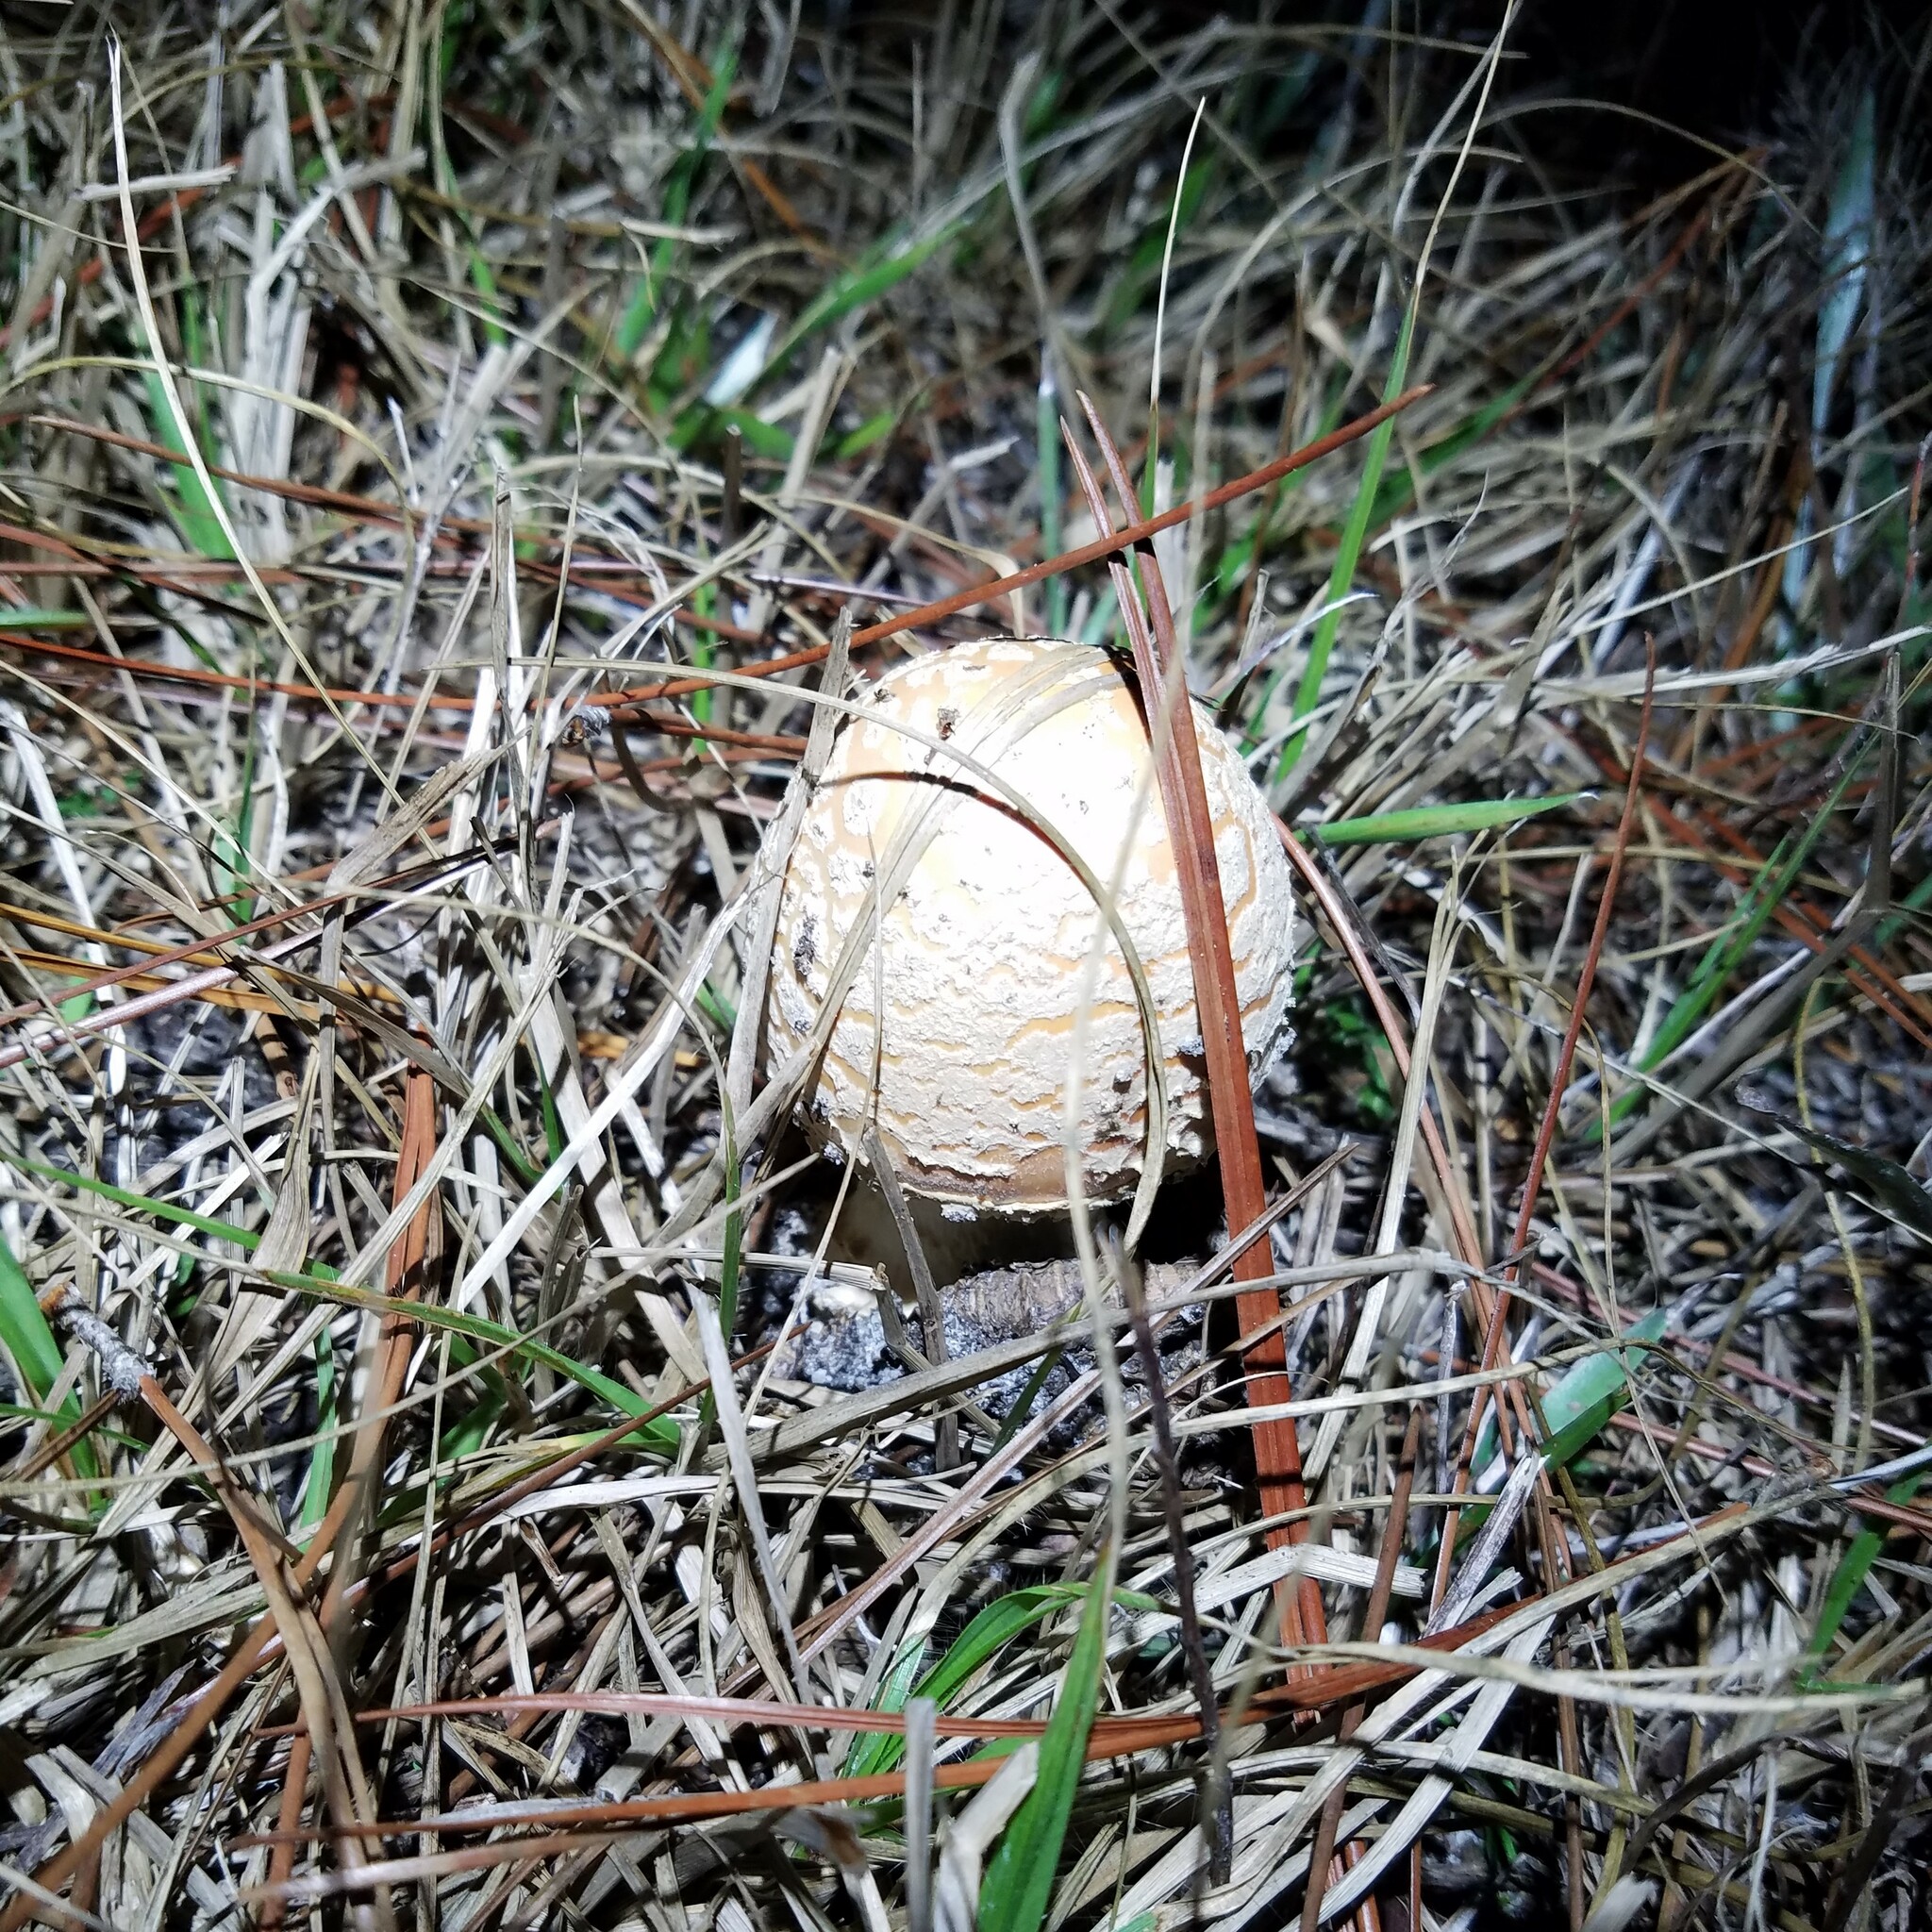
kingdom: Fungi
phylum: Basidiomycota
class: Agaricomycetes
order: Agaricales
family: Amanitaceae
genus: Amanita
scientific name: Amanita persicina
